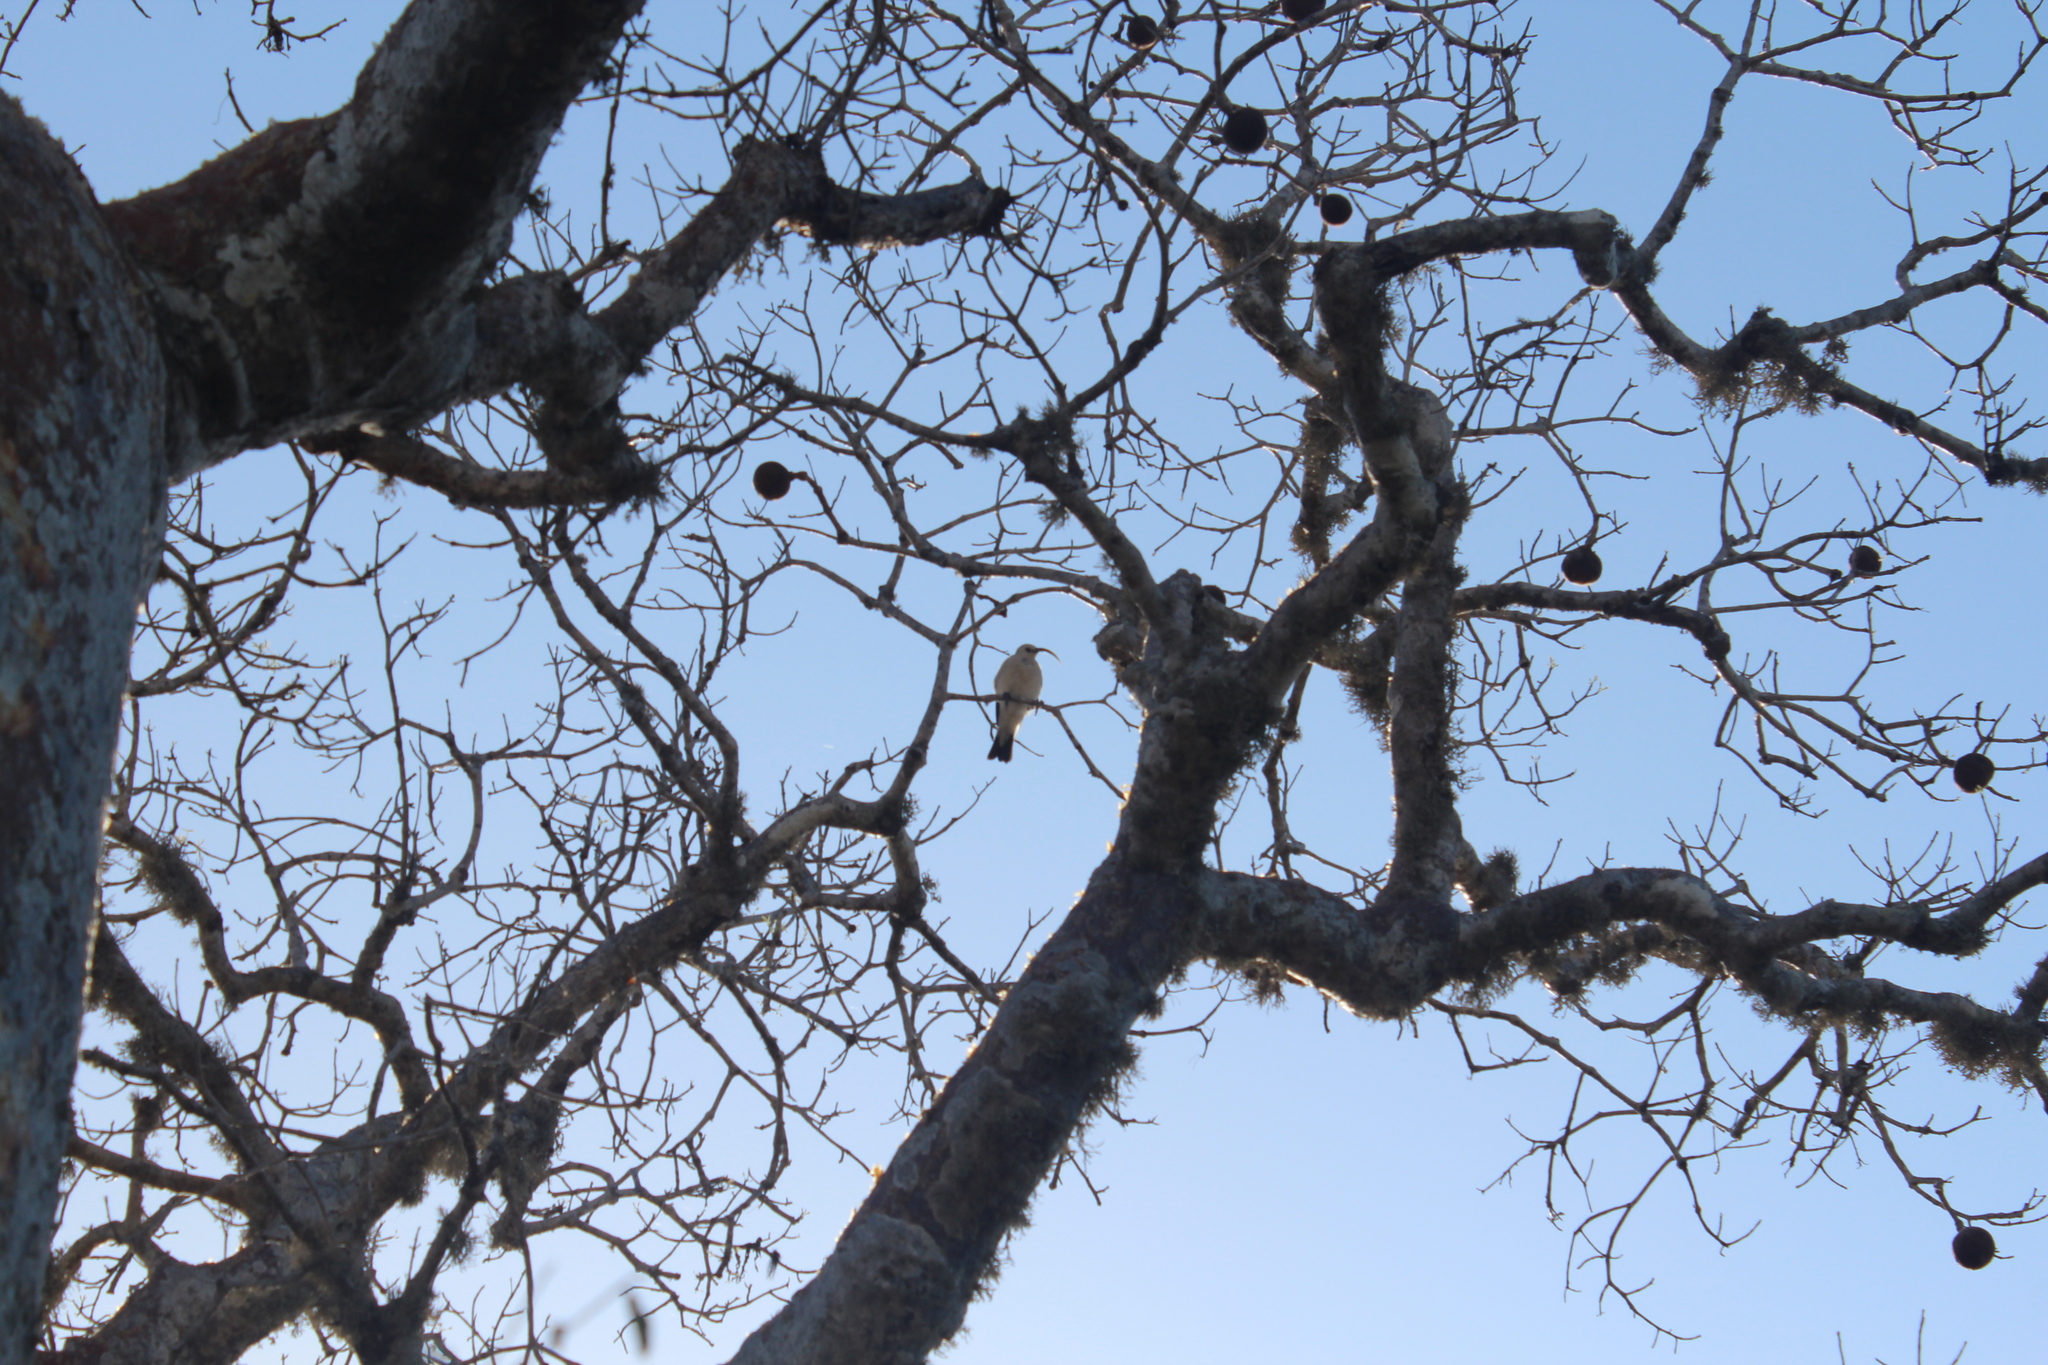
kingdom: Animalia
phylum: Chordata
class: Aves
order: Passeriformes
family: Vangidae
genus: Falculea
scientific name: Falculea palliata
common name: Sickle-billed vanga
